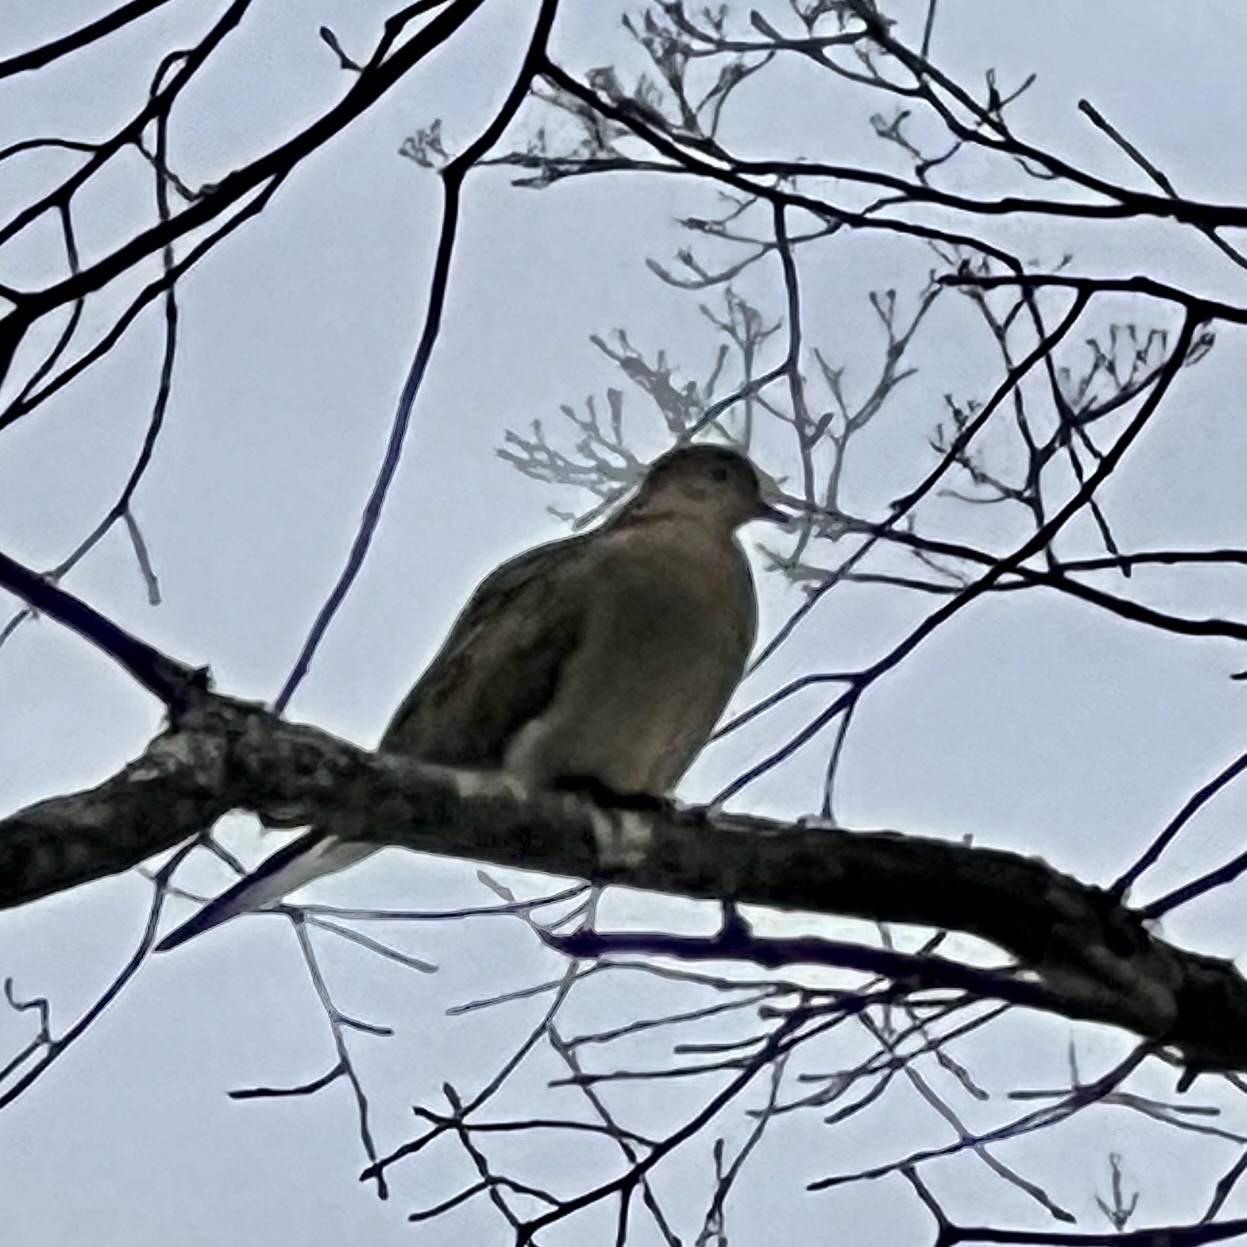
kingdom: Animalia
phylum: Chordata
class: Aves
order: Columbiformes
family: Columbidae
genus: Zenaida
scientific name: Zenaida macroura
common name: Mourning dove
